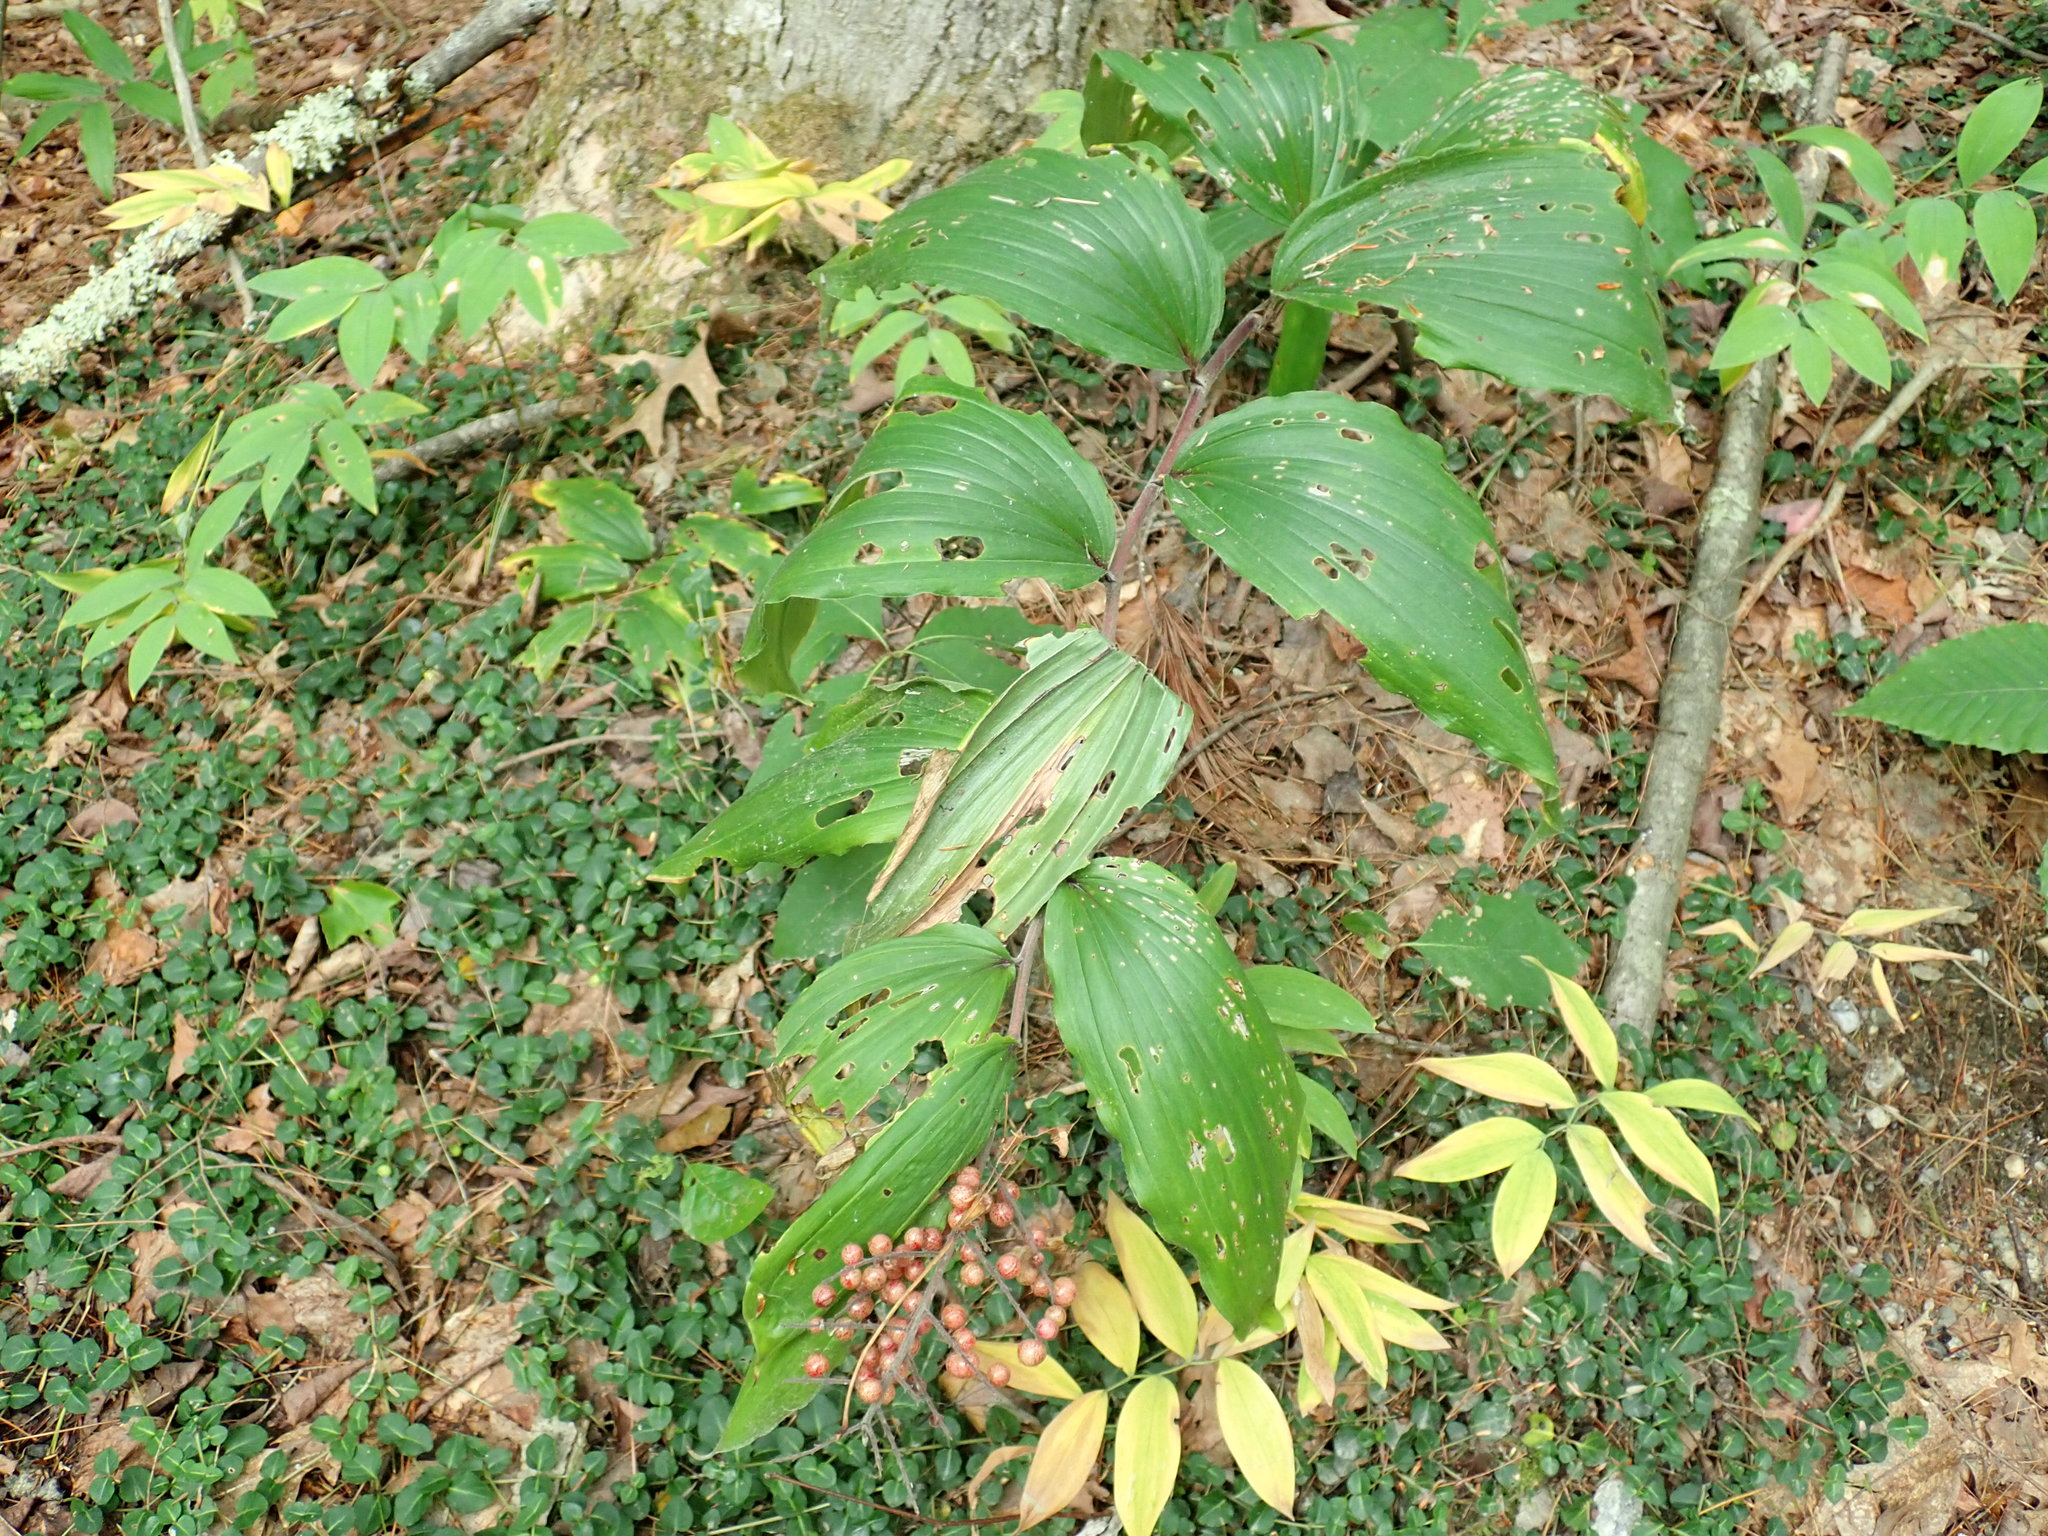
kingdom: Plantae
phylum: Tracheophyta
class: Liliopsida
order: Asparagales
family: Asparagaceae
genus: Maianthemum
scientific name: Maianthemum racemosum
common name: False spikenard
